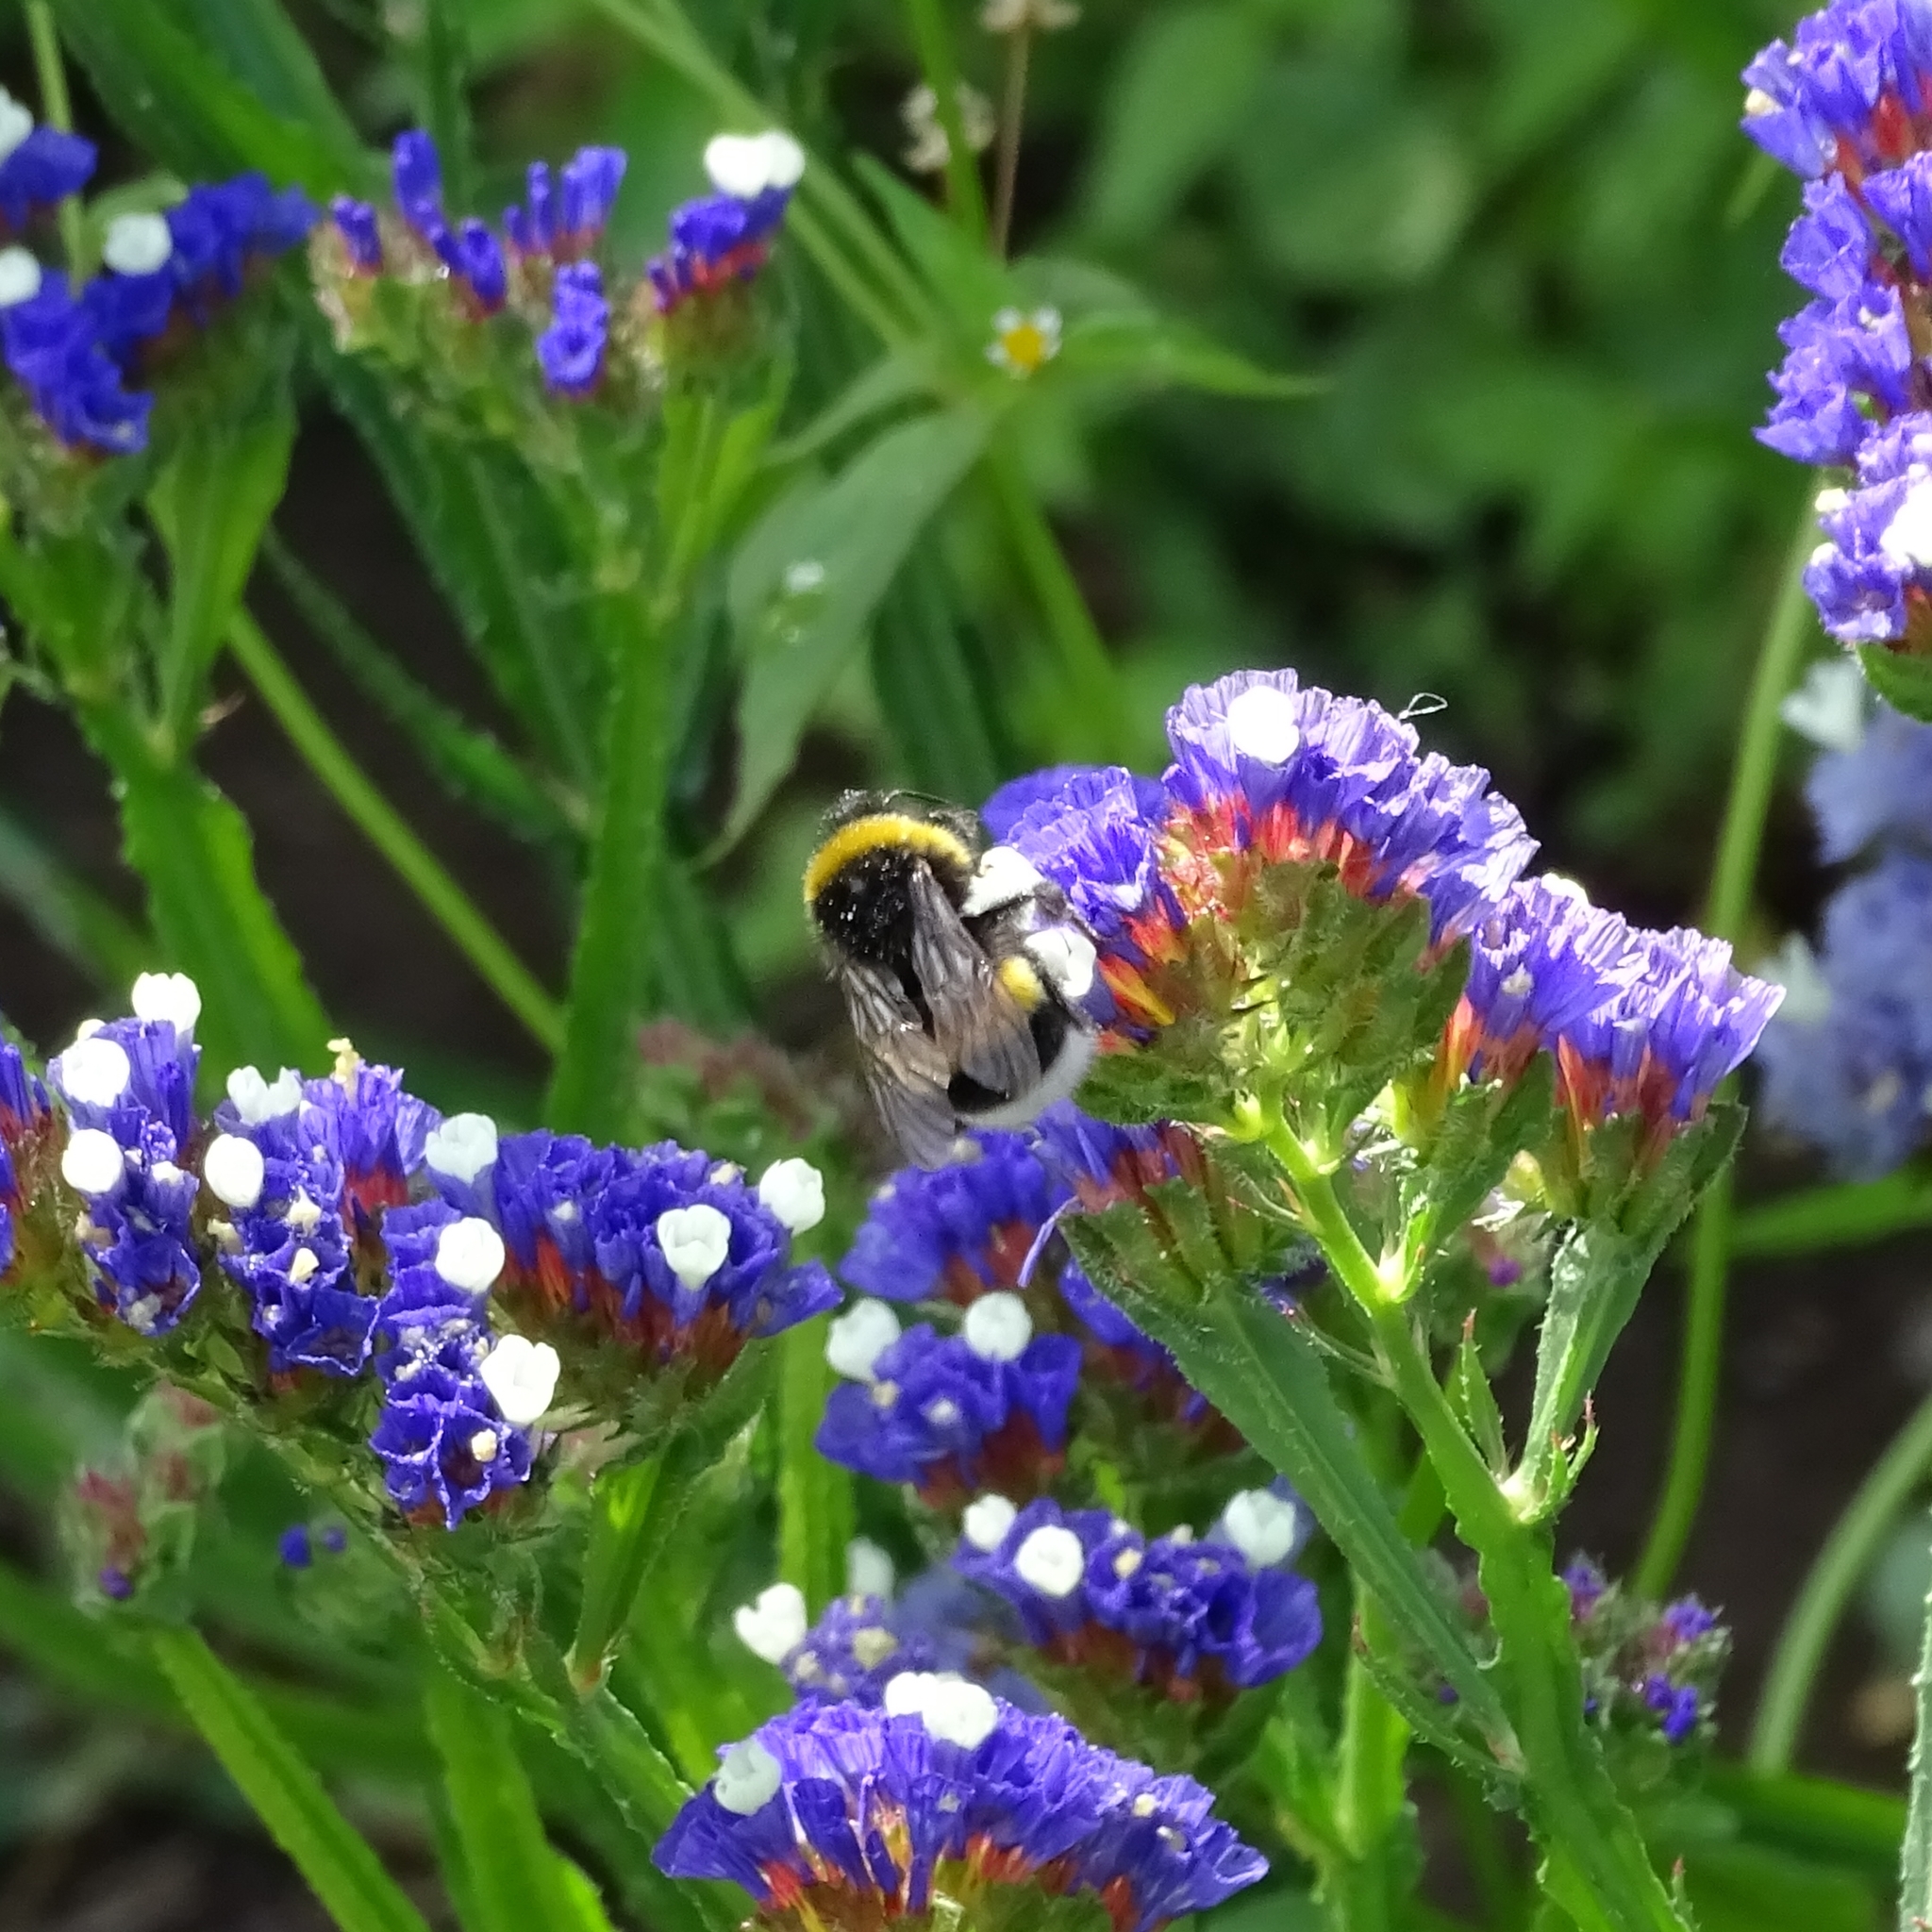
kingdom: Animalia
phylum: Arthropoda
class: Insecta
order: Hymenoptera
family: Apidae
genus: Bombus
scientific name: Bombus terrestris
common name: Buff-tailed bumblebee
